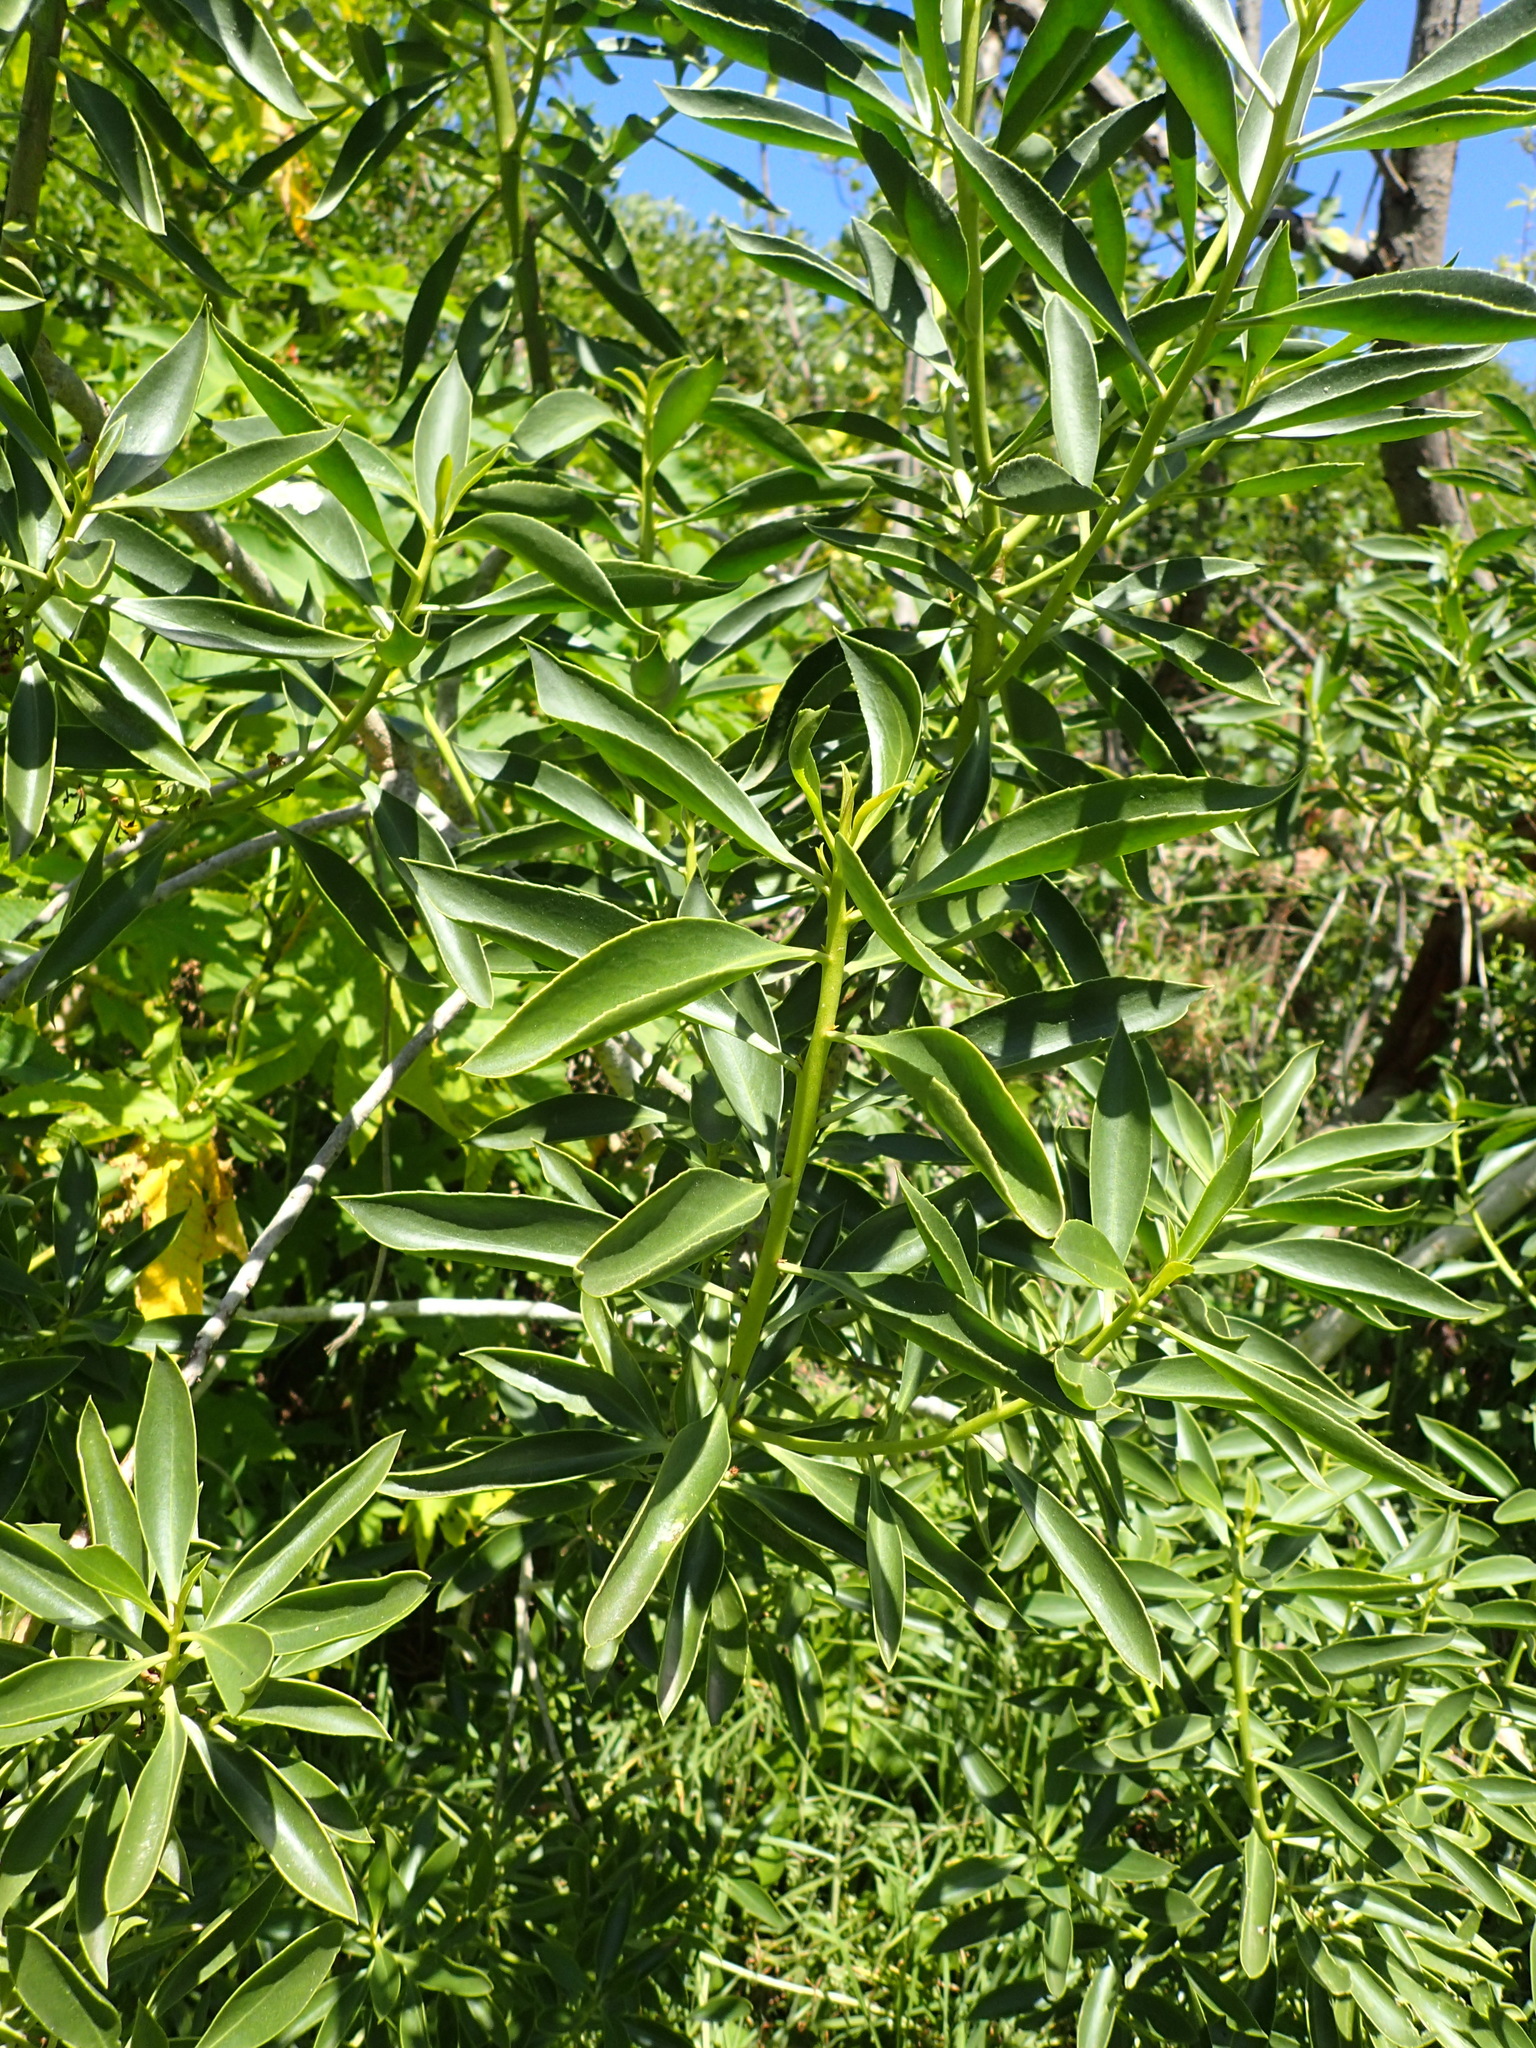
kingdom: Plantae
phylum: Tracheophyta
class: Magnoliopsida
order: Lamiales
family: Scrophulariaceae
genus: Myoporum
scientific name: Myoporum montanum
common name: Waterbush
